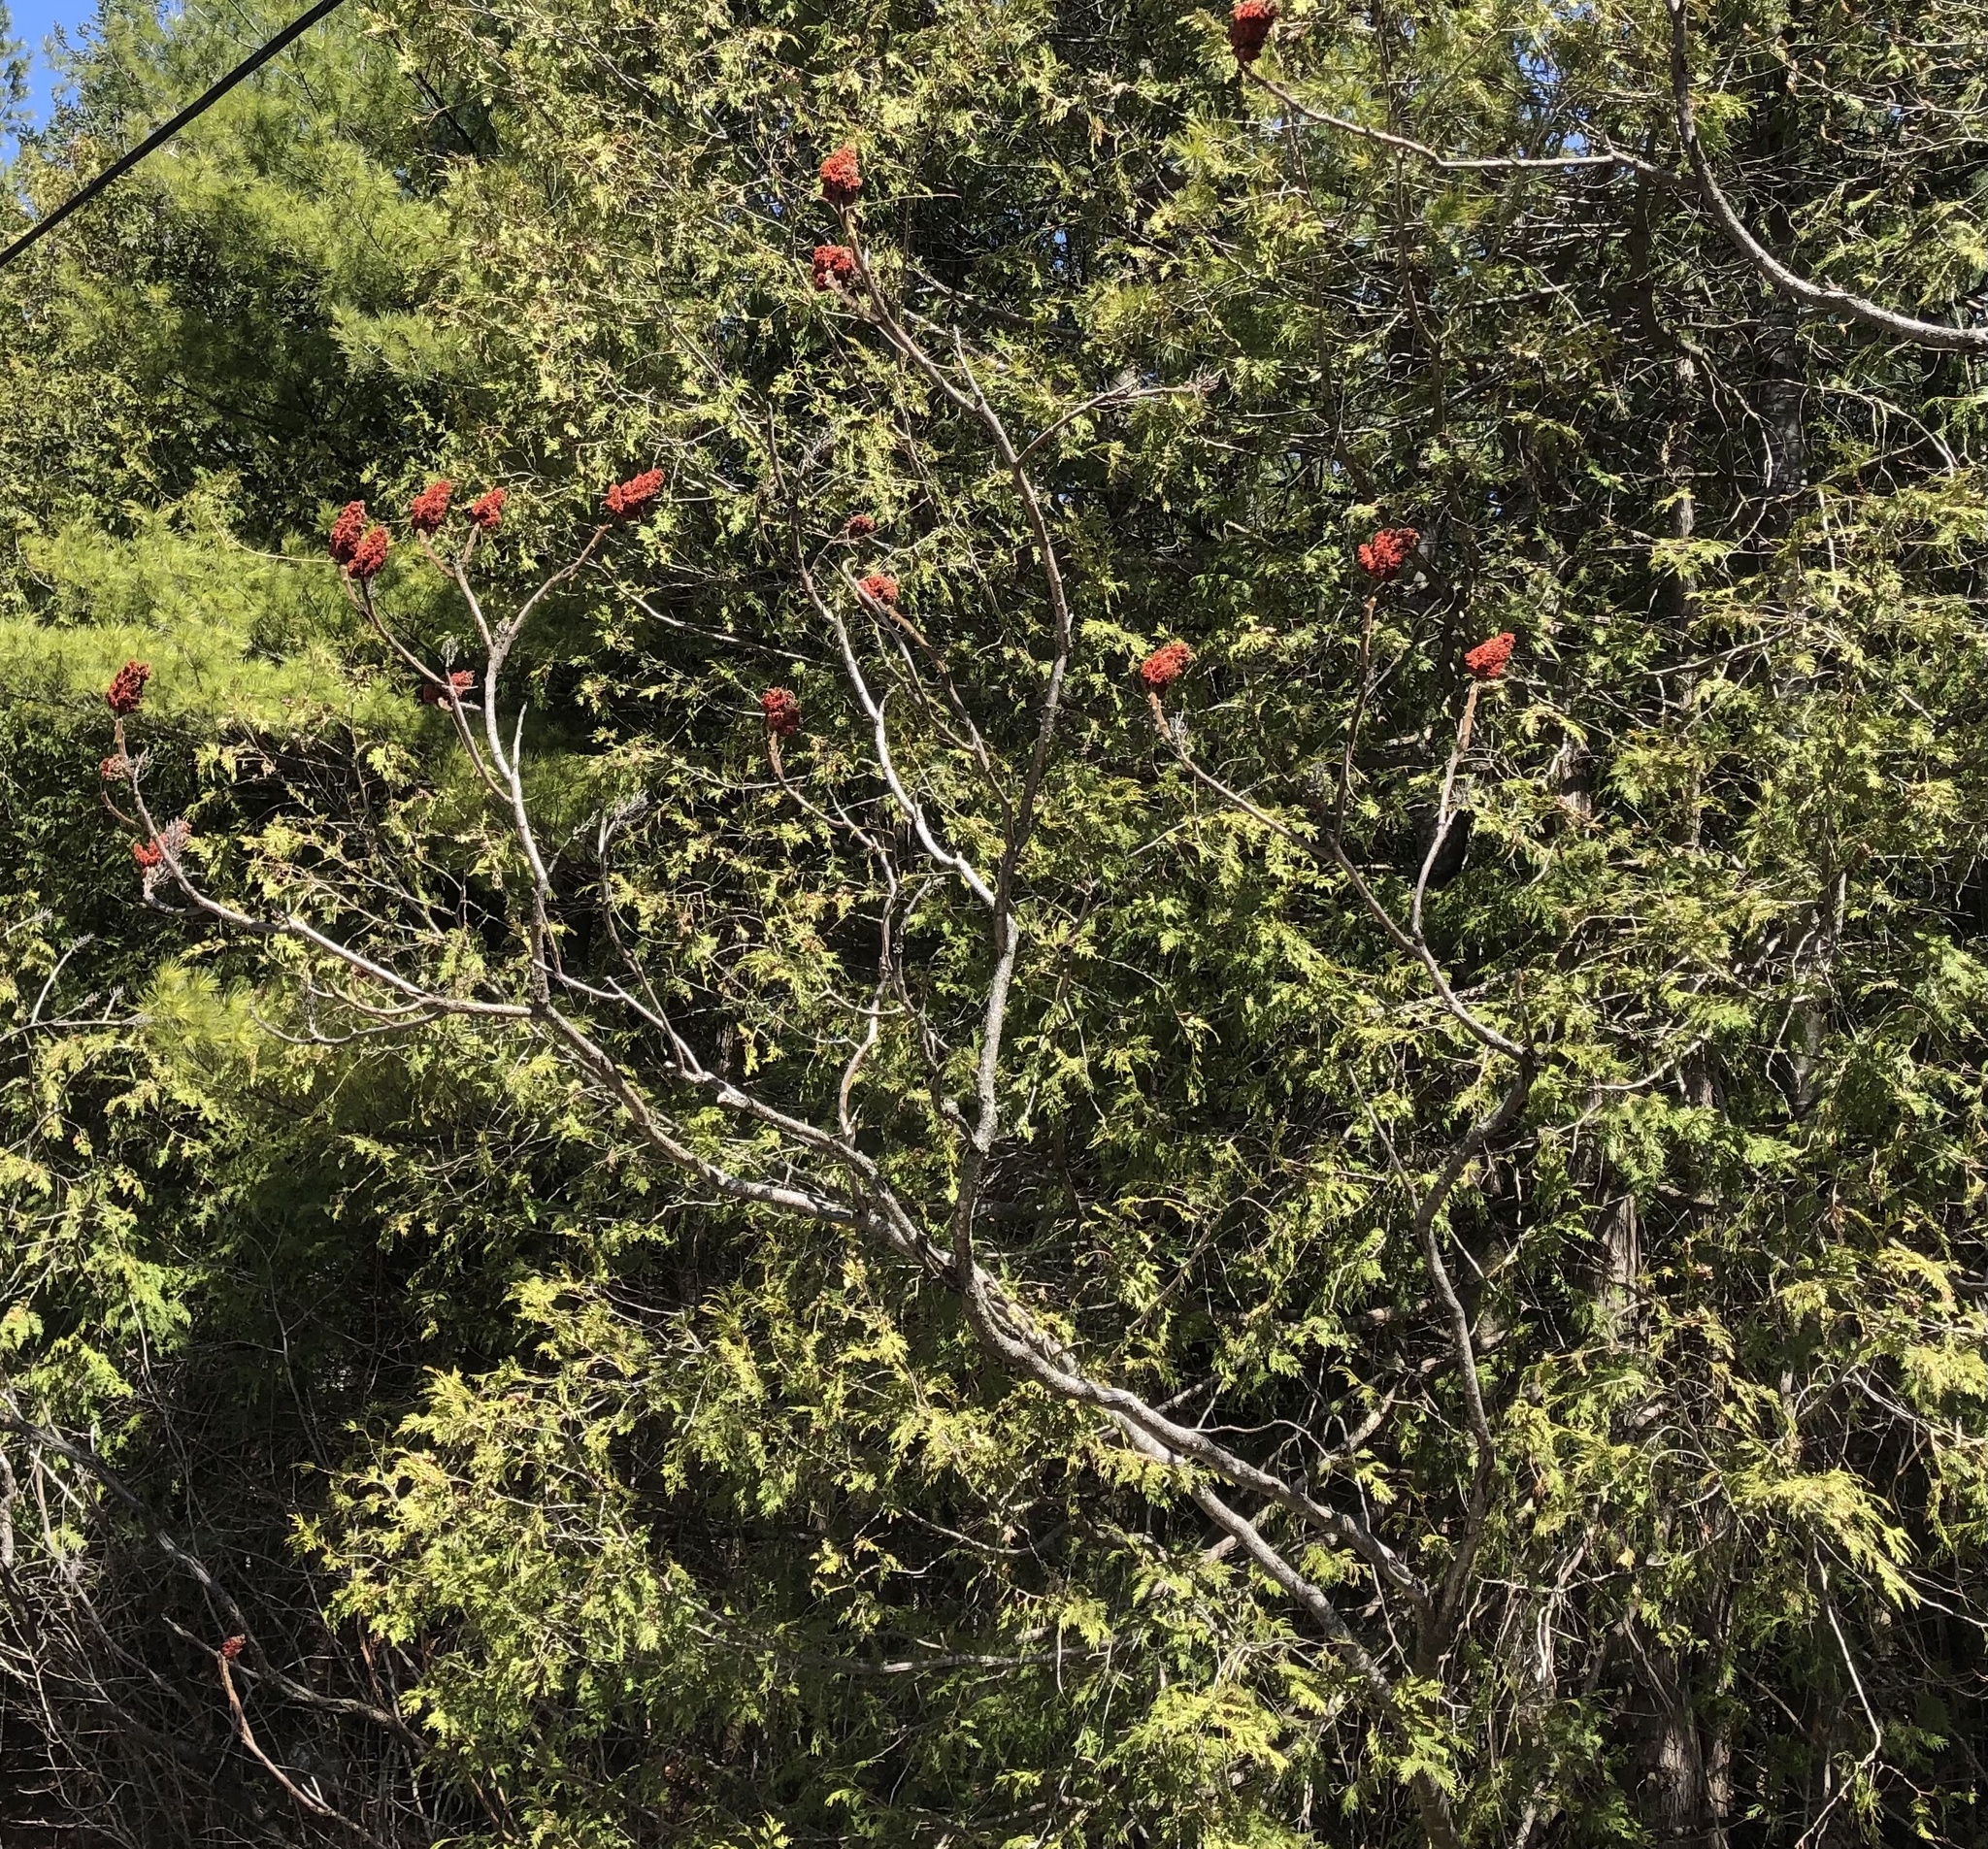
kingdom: Plantae
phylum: Tracheophyta
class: Magnoliopsida
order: Sapindales
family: Anacardiaceae
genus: Rhus
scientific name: Rhus typhina
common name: Staghorn sumac
